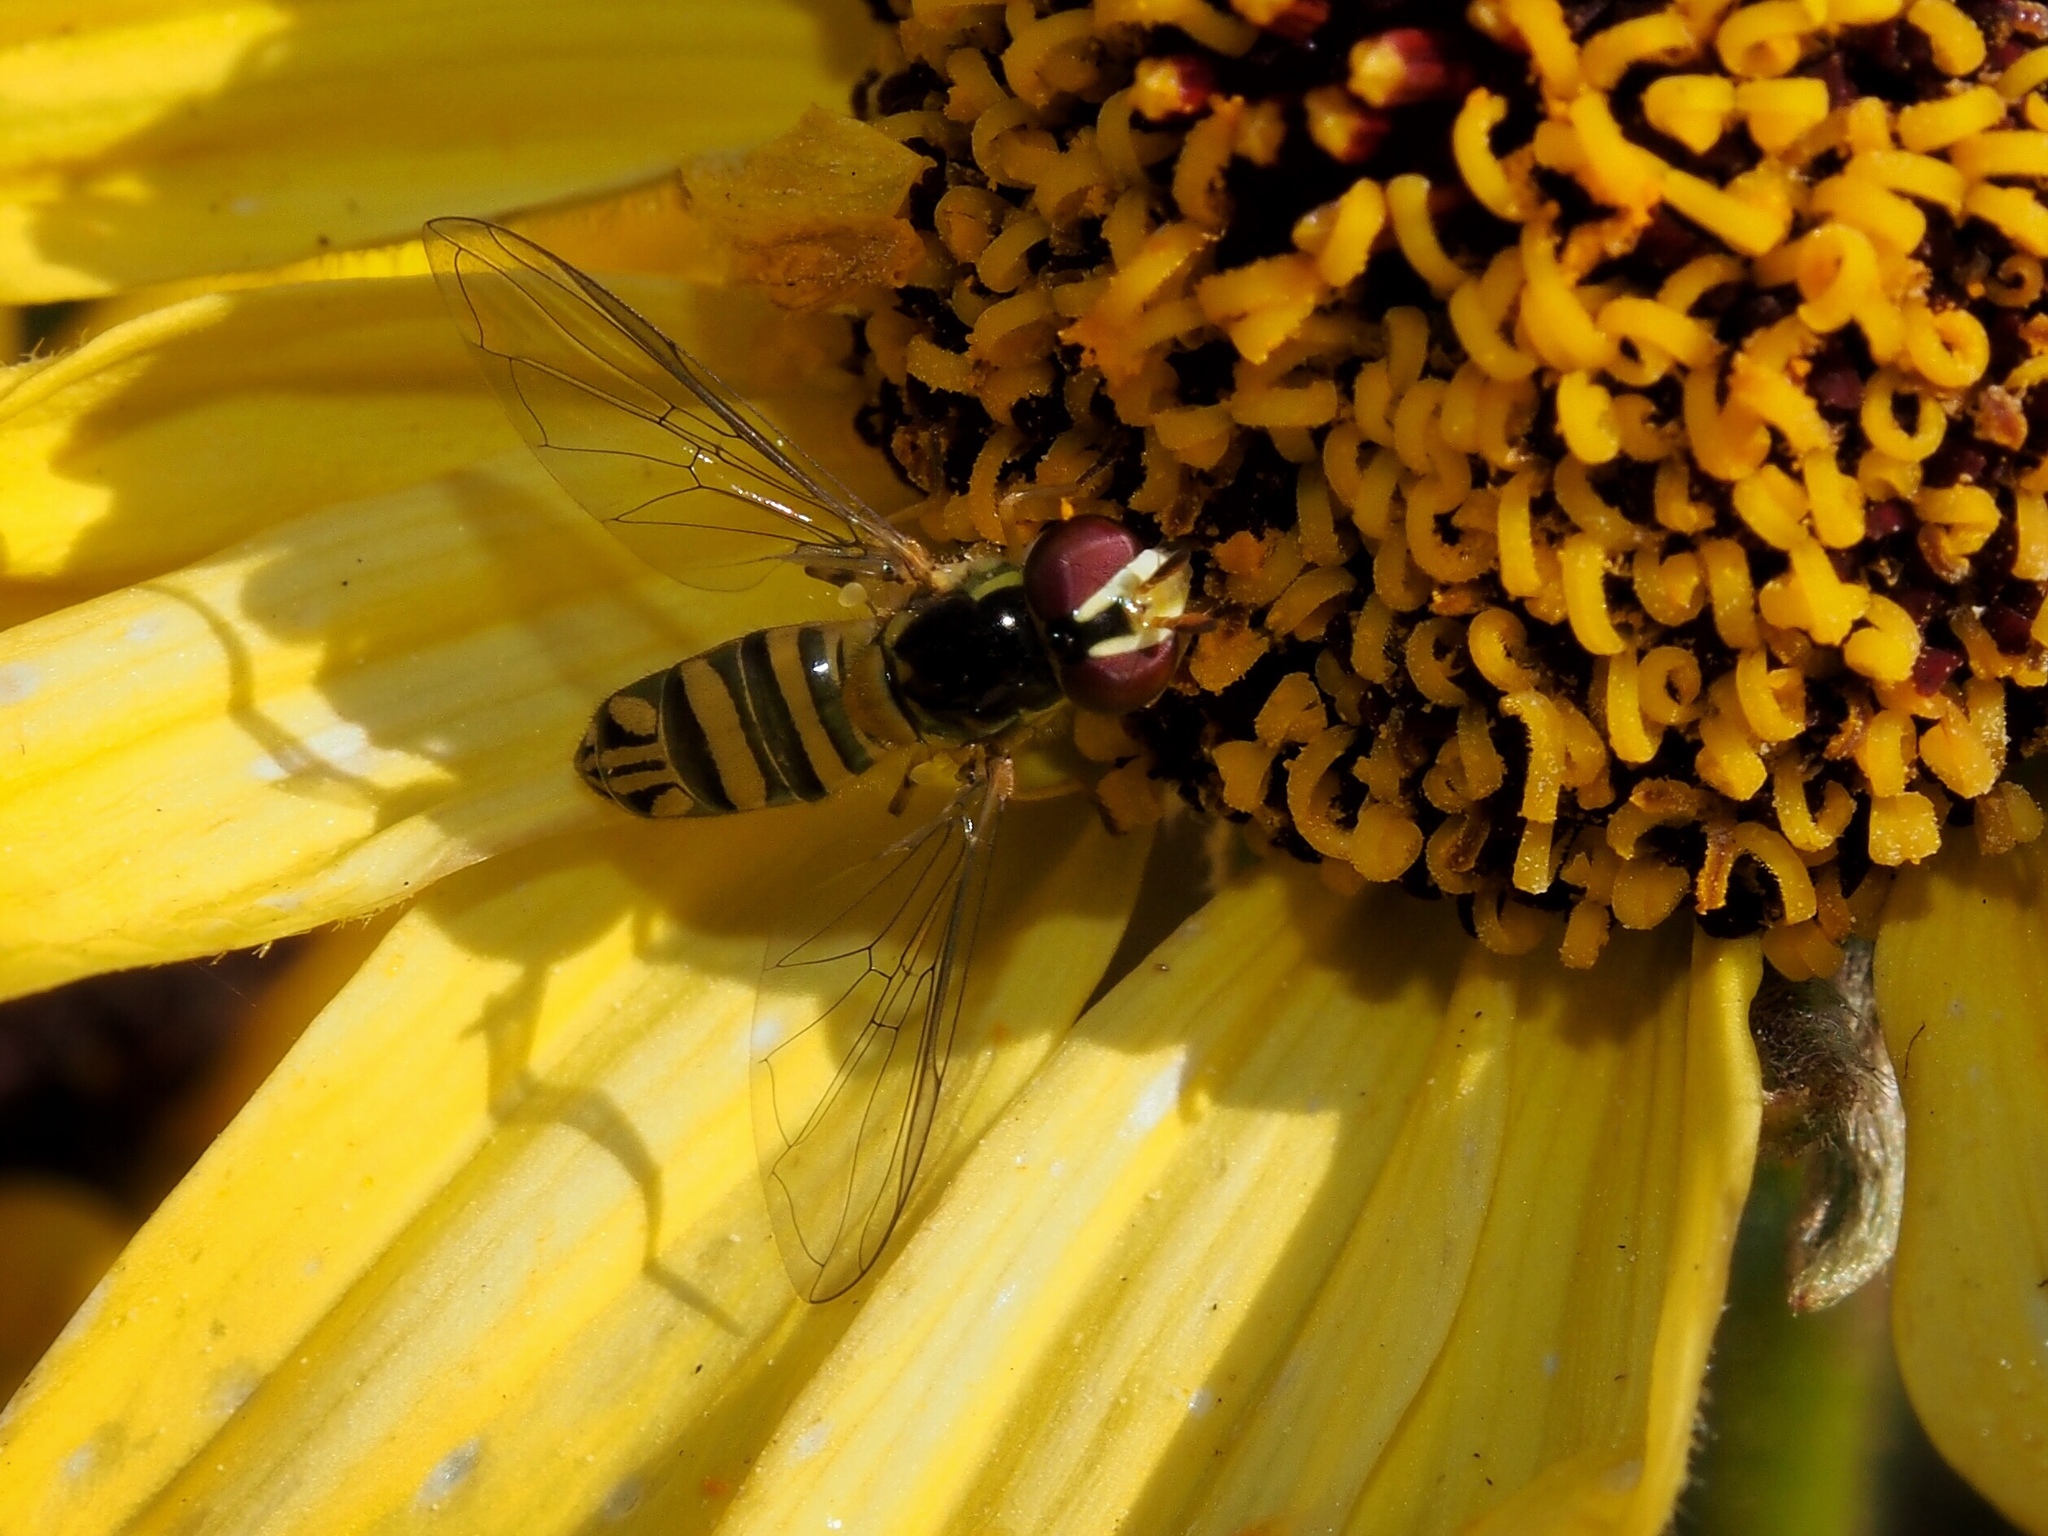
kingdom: Animalia
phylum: Arthropoda
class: Insecta
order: Diptera
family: Syrphidae
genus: Allograpta
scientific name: Allograpta obliqua
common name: Common oblique syrphid
